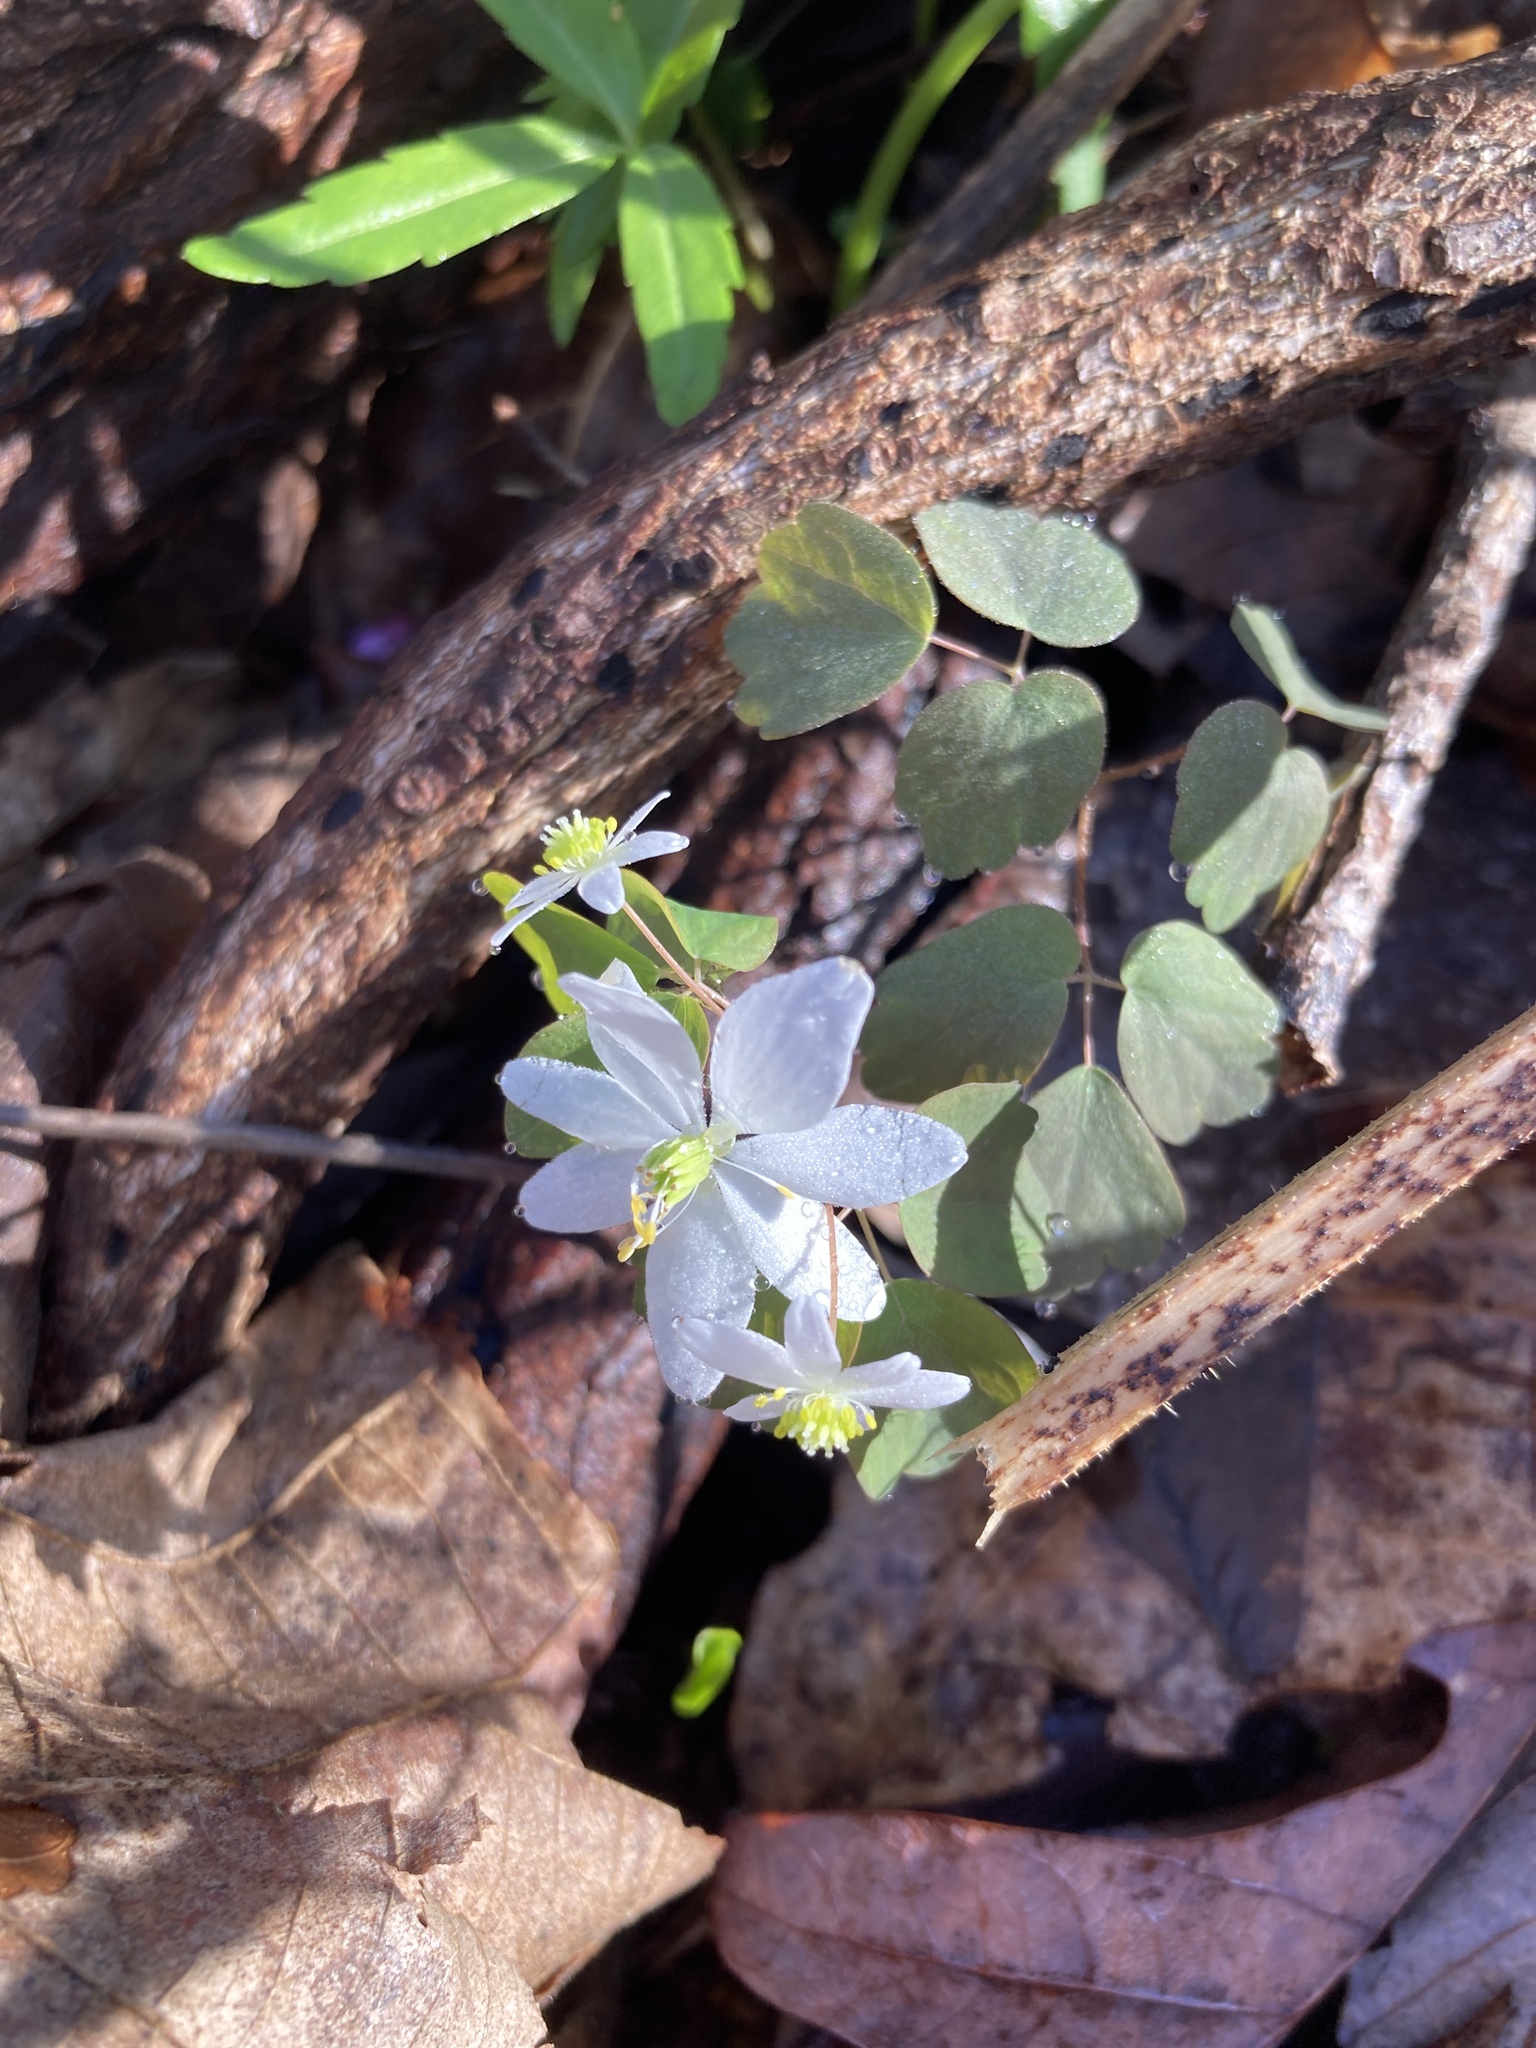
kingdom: Plantae
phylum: Tracheophyta
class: Magnoliopsida
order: Ranunculales
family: Ranunculaceae
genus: Thalictrum
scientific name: Thalictrum thalictroides
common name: Rue-anemone
